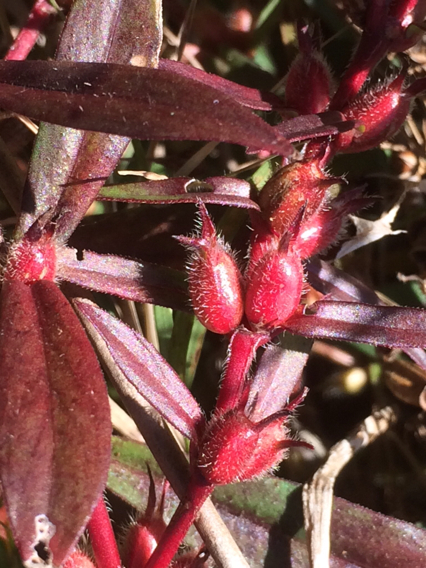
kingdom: Plantae
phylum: Tracheophyta
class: Magnoliopsida
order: Gentianales
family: Rubiaceae
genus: Diodia
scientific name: Diodia virginiana
